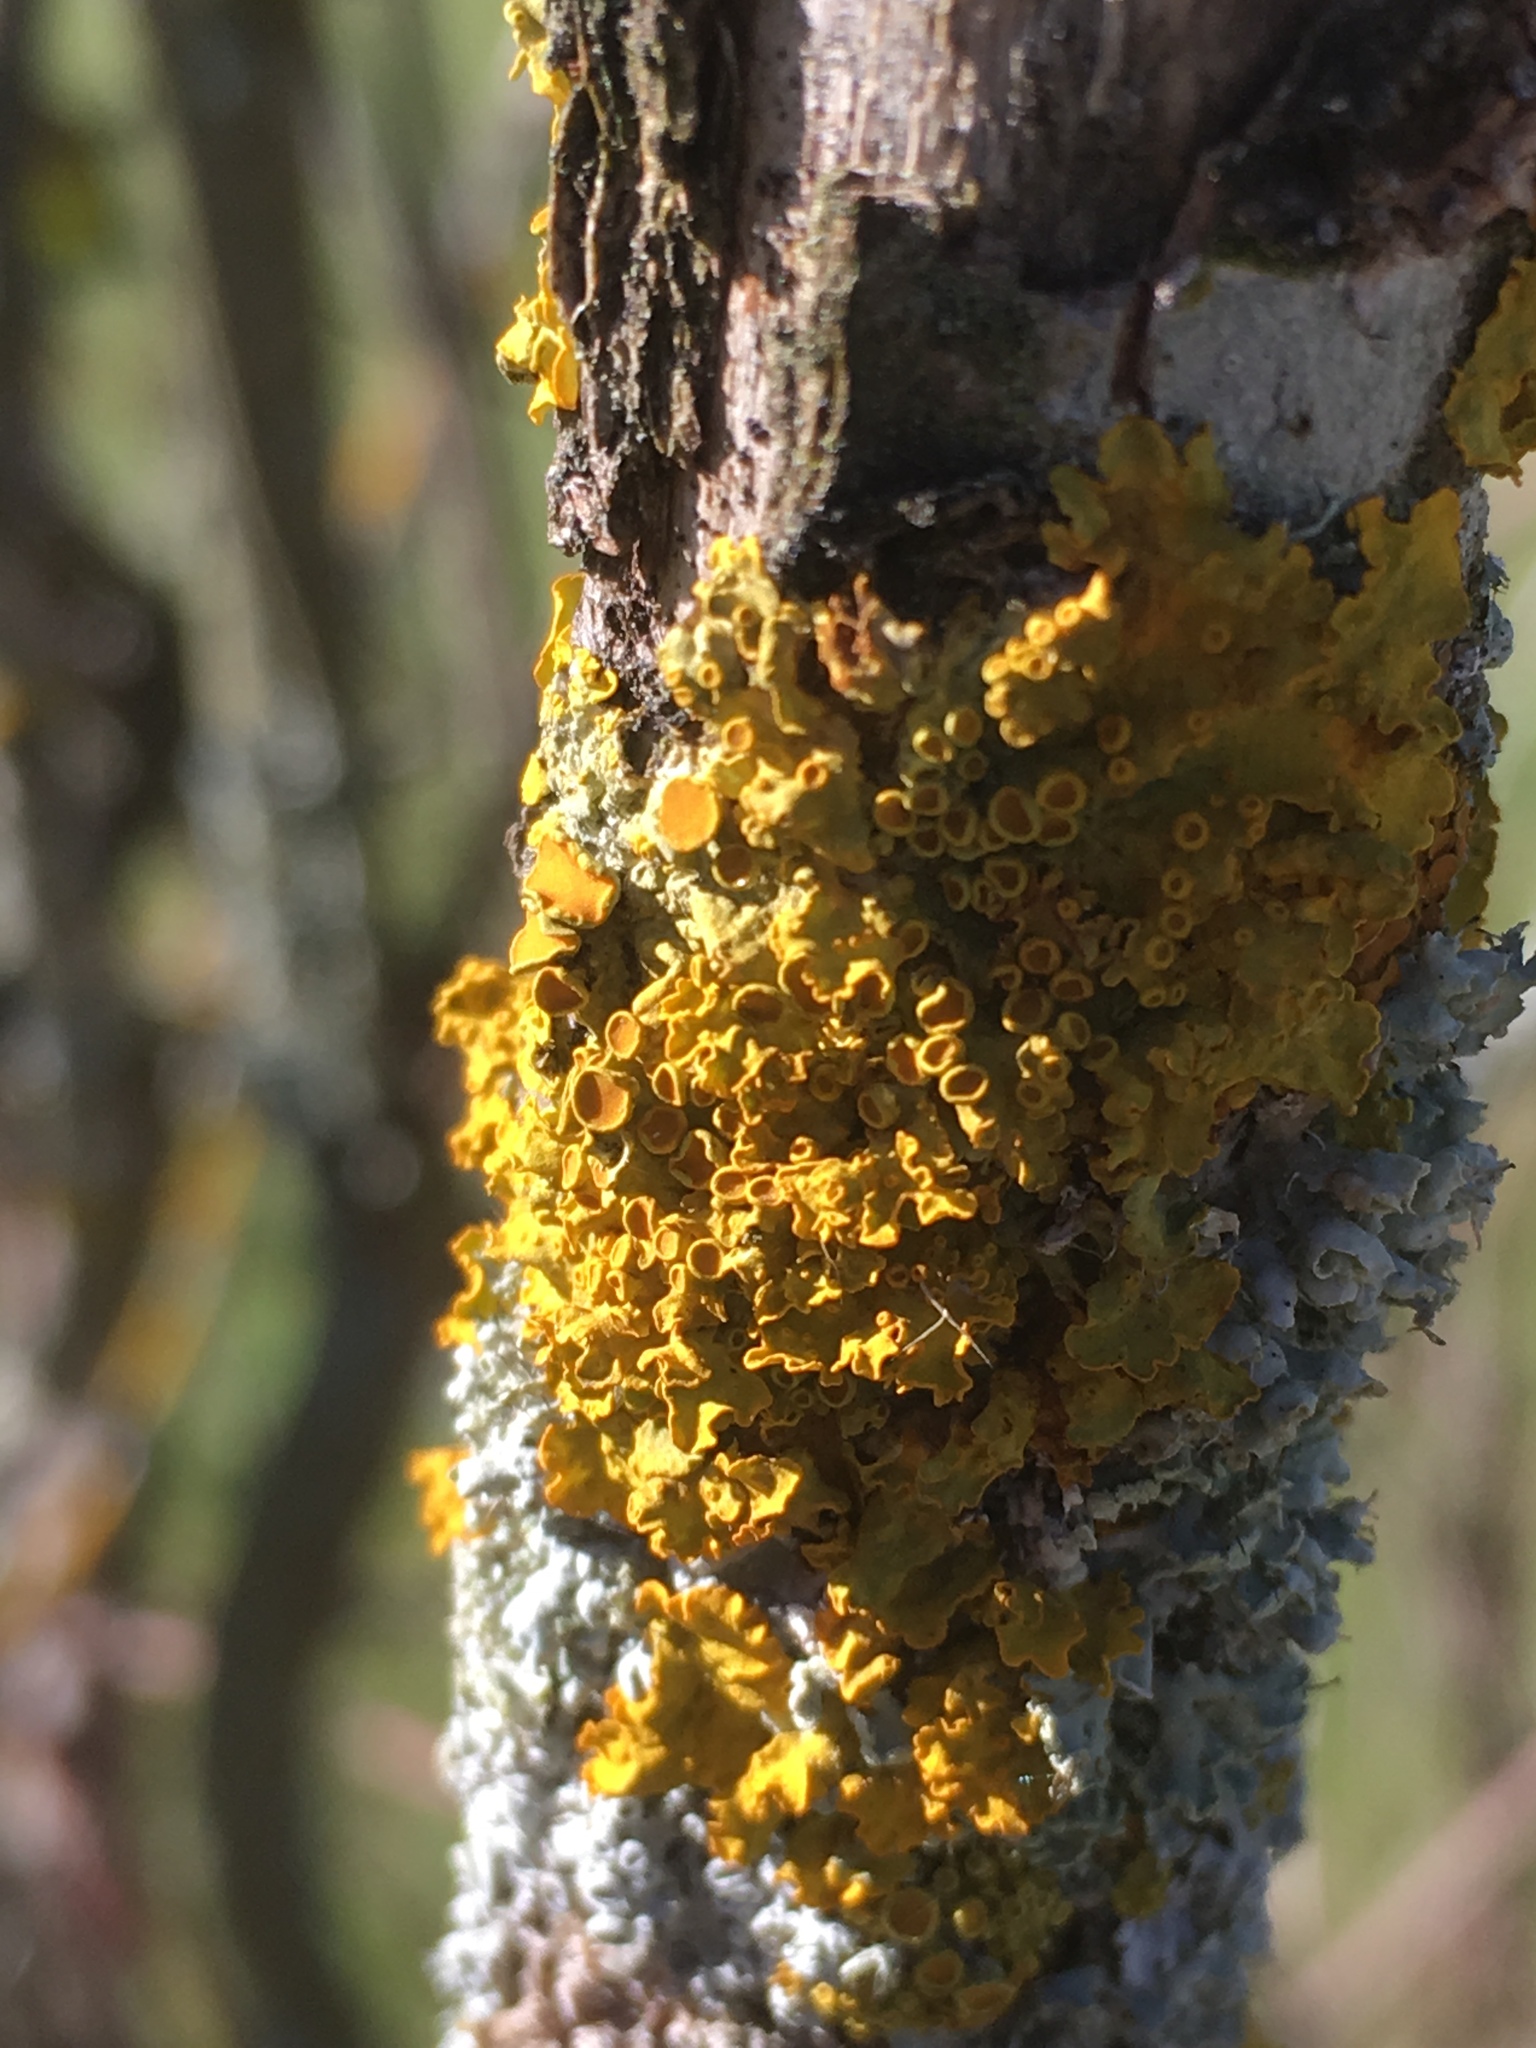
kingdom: Fungi
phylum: Ascomycota
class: Lecanoromycetes
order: Teloschistales
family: Teloschistaceae
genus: Xanthoria
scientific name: Xanthoria parietina
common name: Common orange lichen
